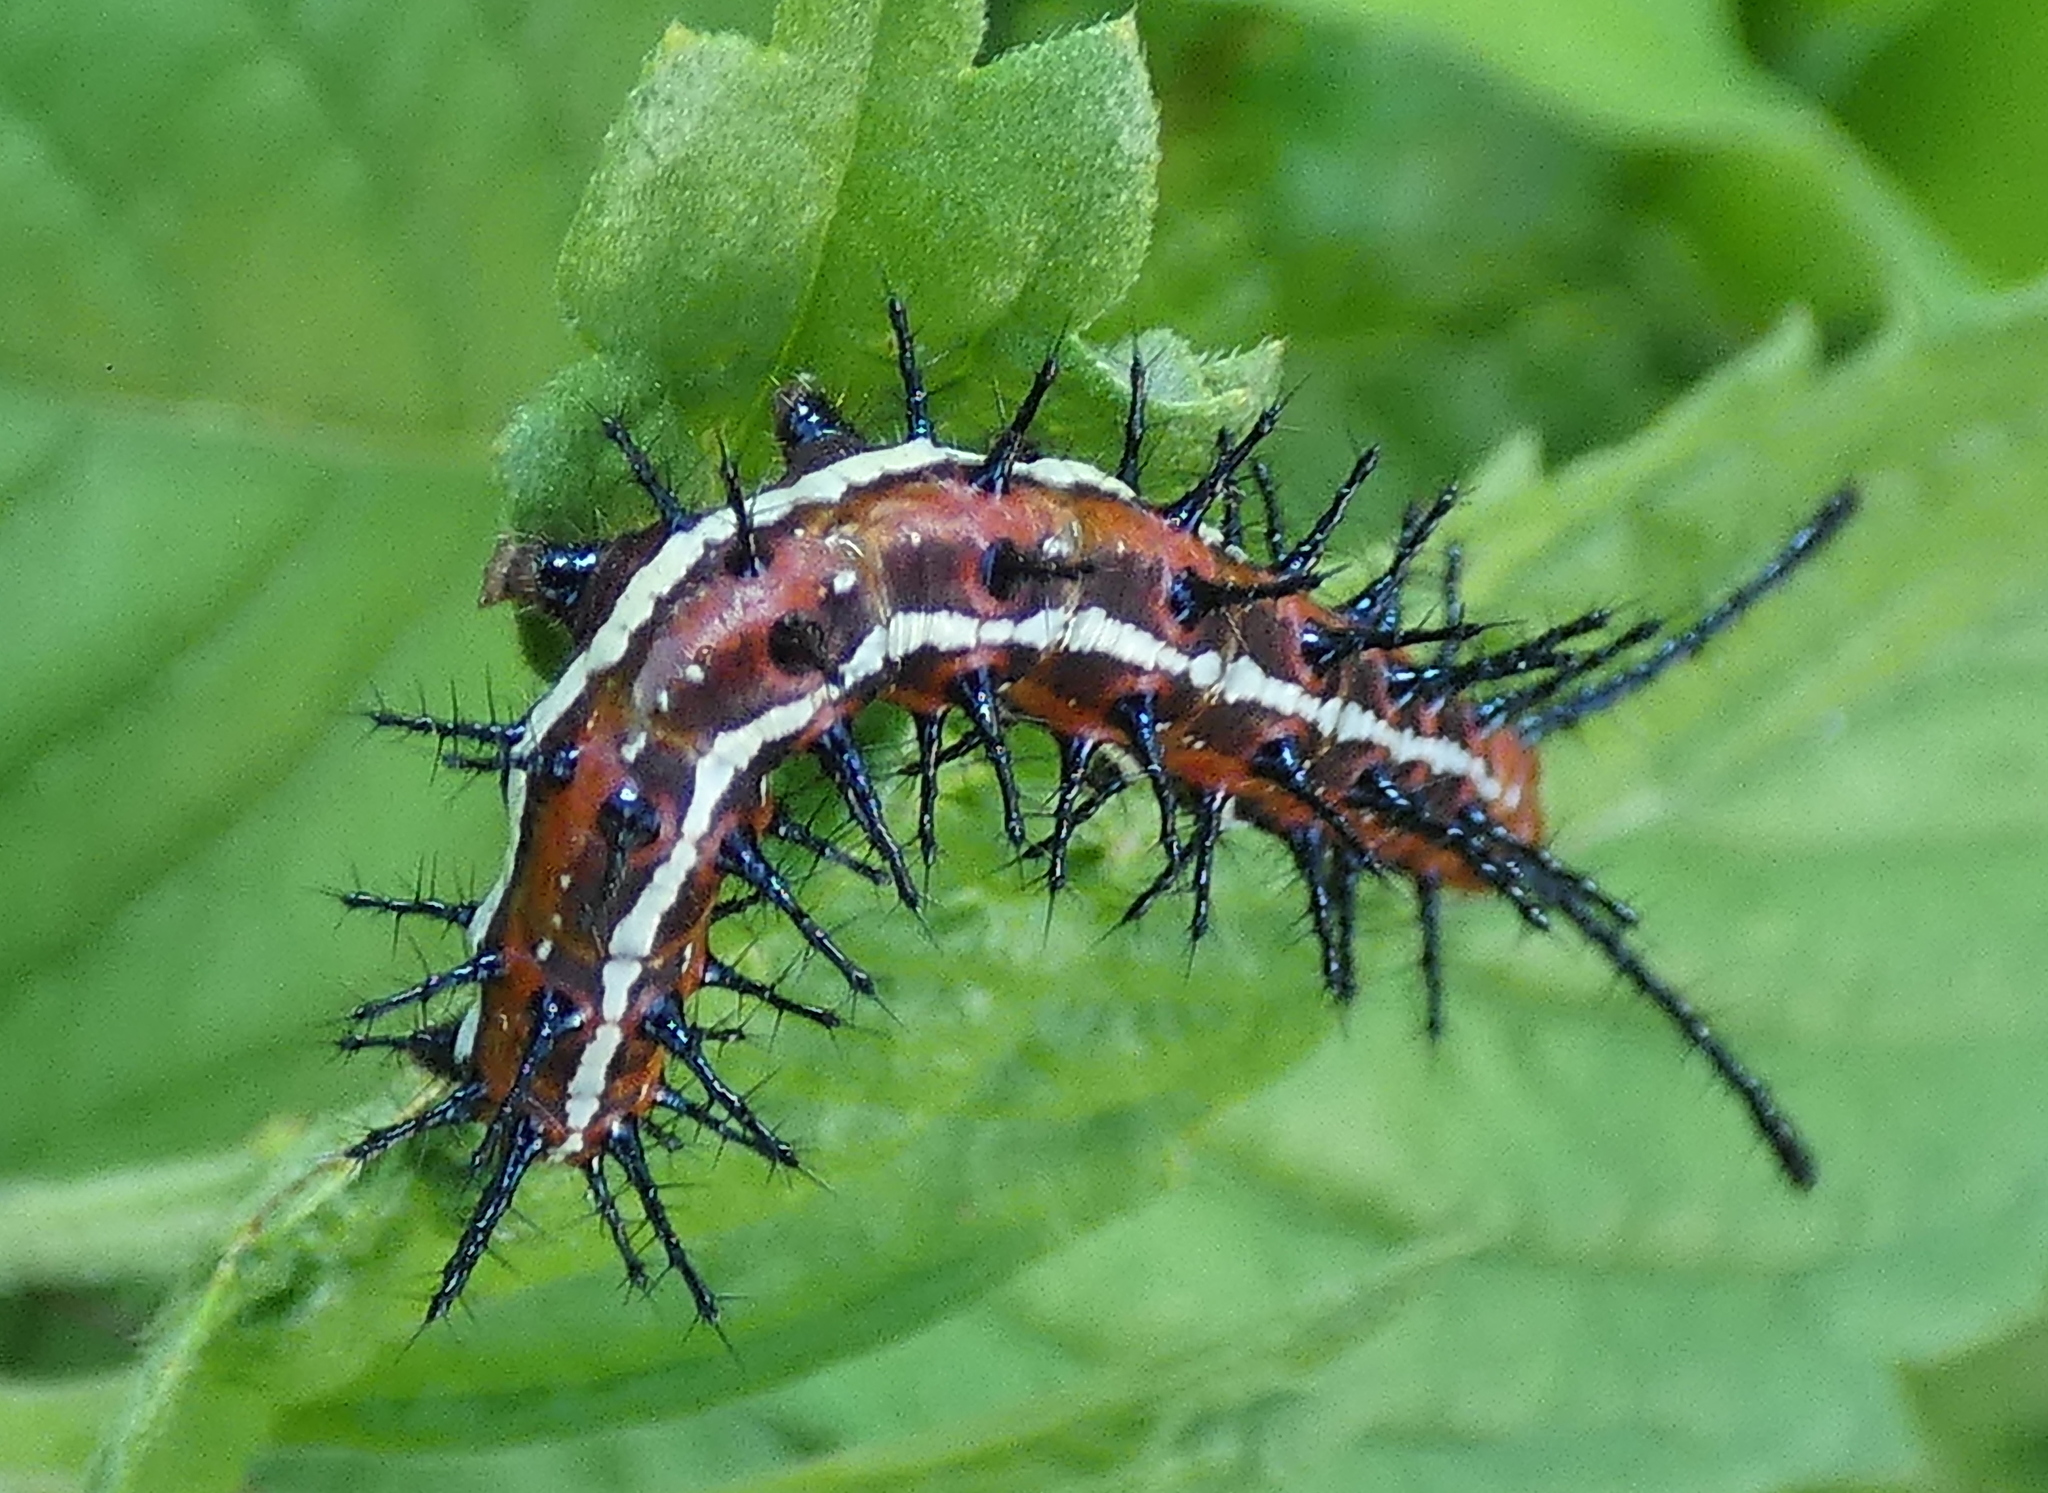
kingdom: Animalia
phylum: Arthropoda
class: Insecta
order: Lepidoptera
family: Nymphalidae
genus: Euptoieta
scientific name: Euptoieta hegesia
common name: Mexican fritillary
